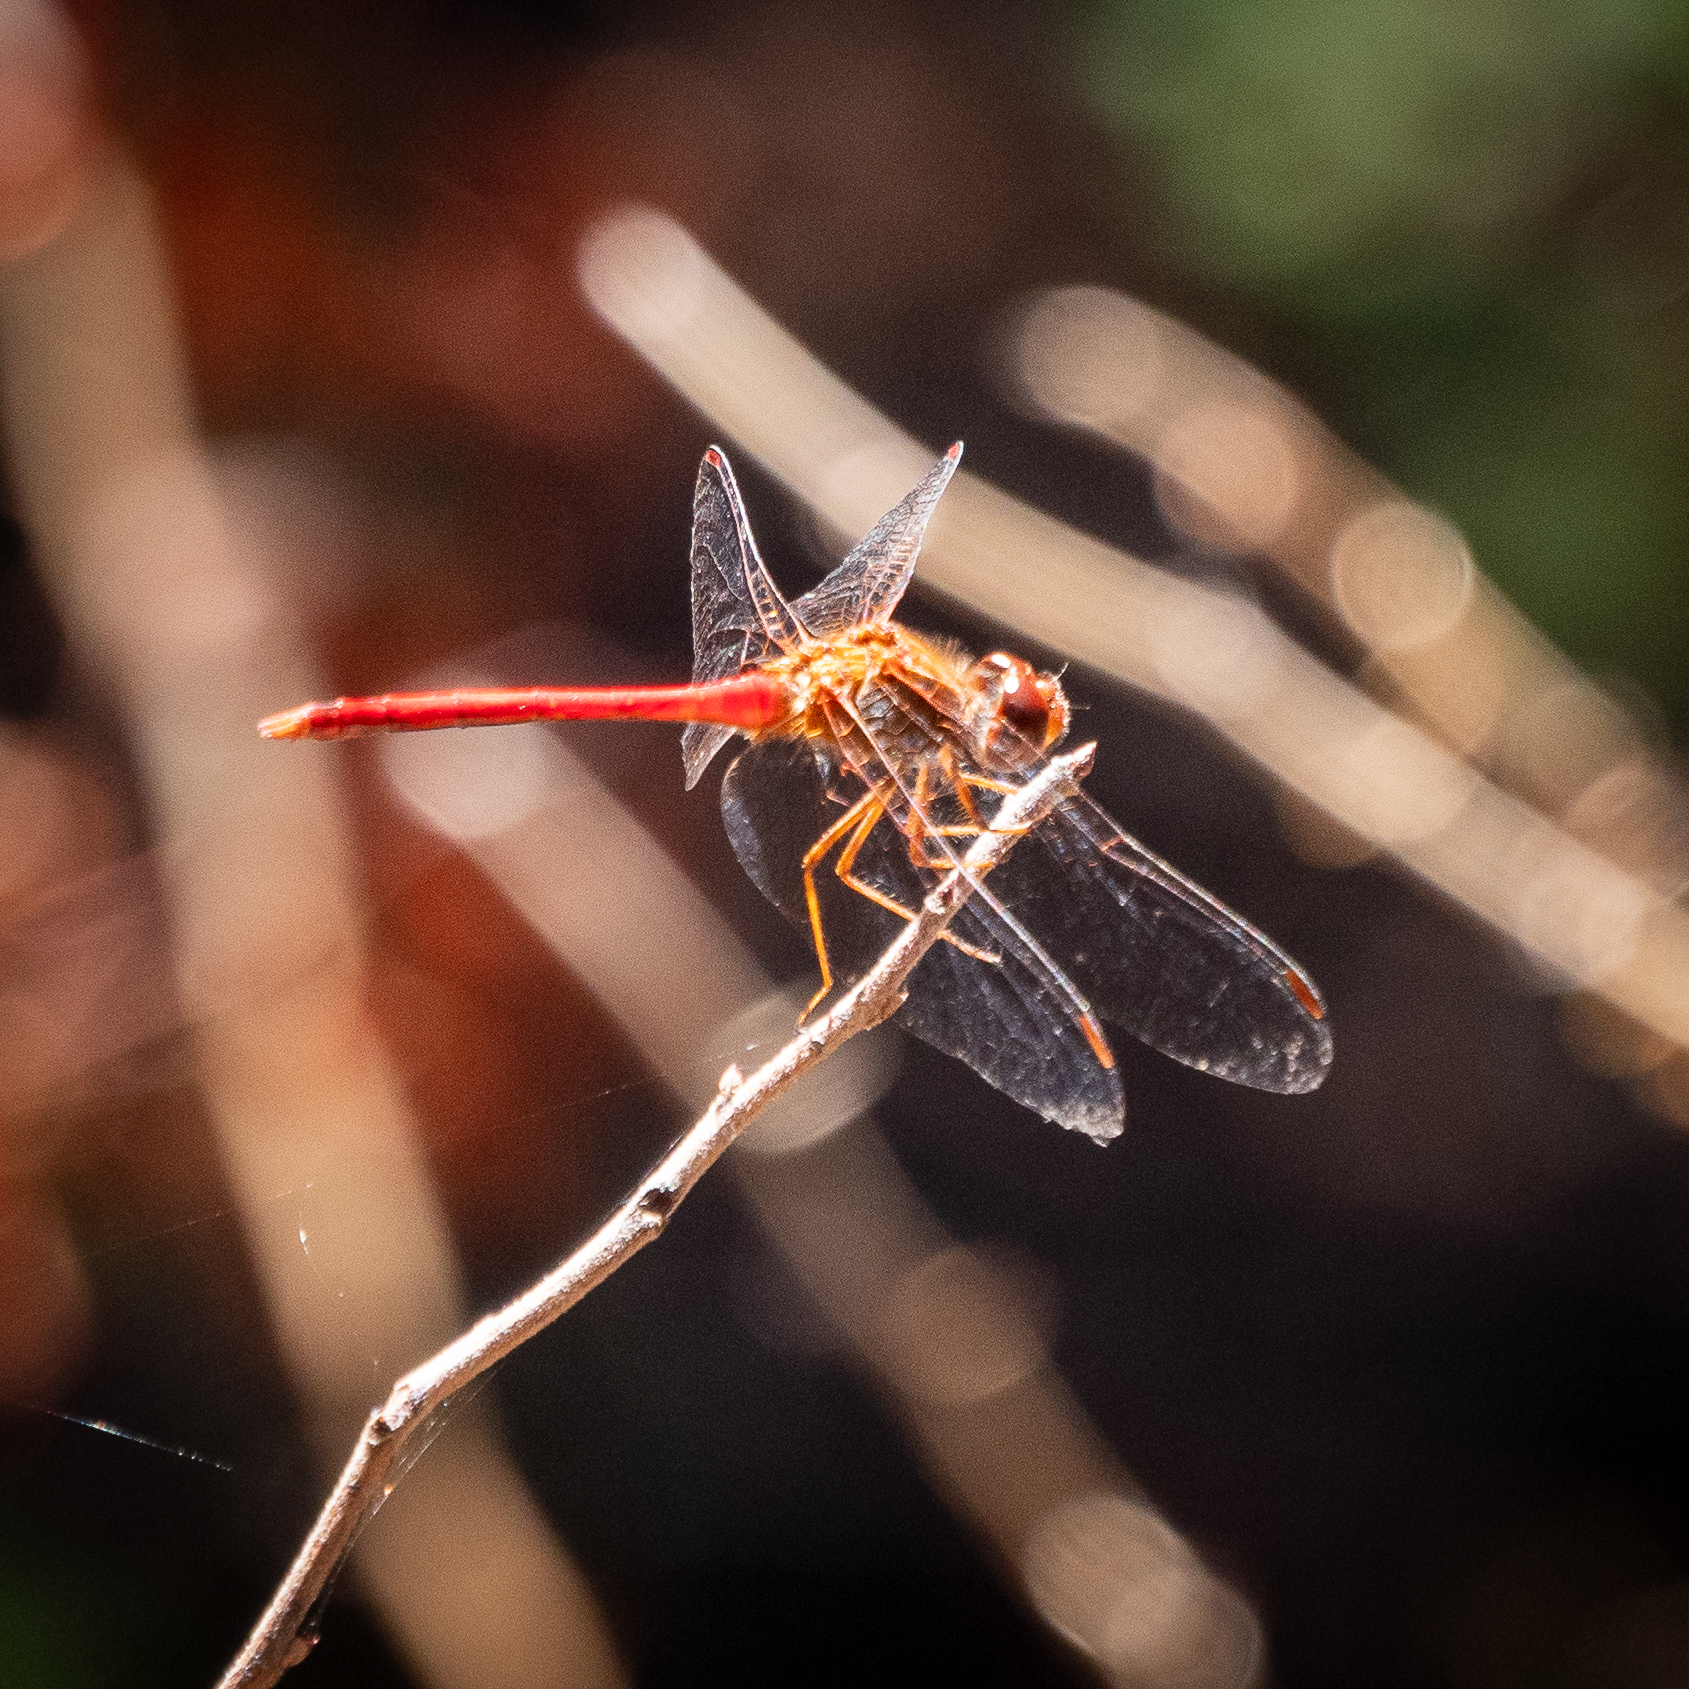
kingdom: Animalia
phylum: Arthropoda
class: Insecta
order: Odonata
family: Libellulidae
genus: Sympetrum
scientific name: Sympetrum vicinum
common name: Autumn meadowhawk
